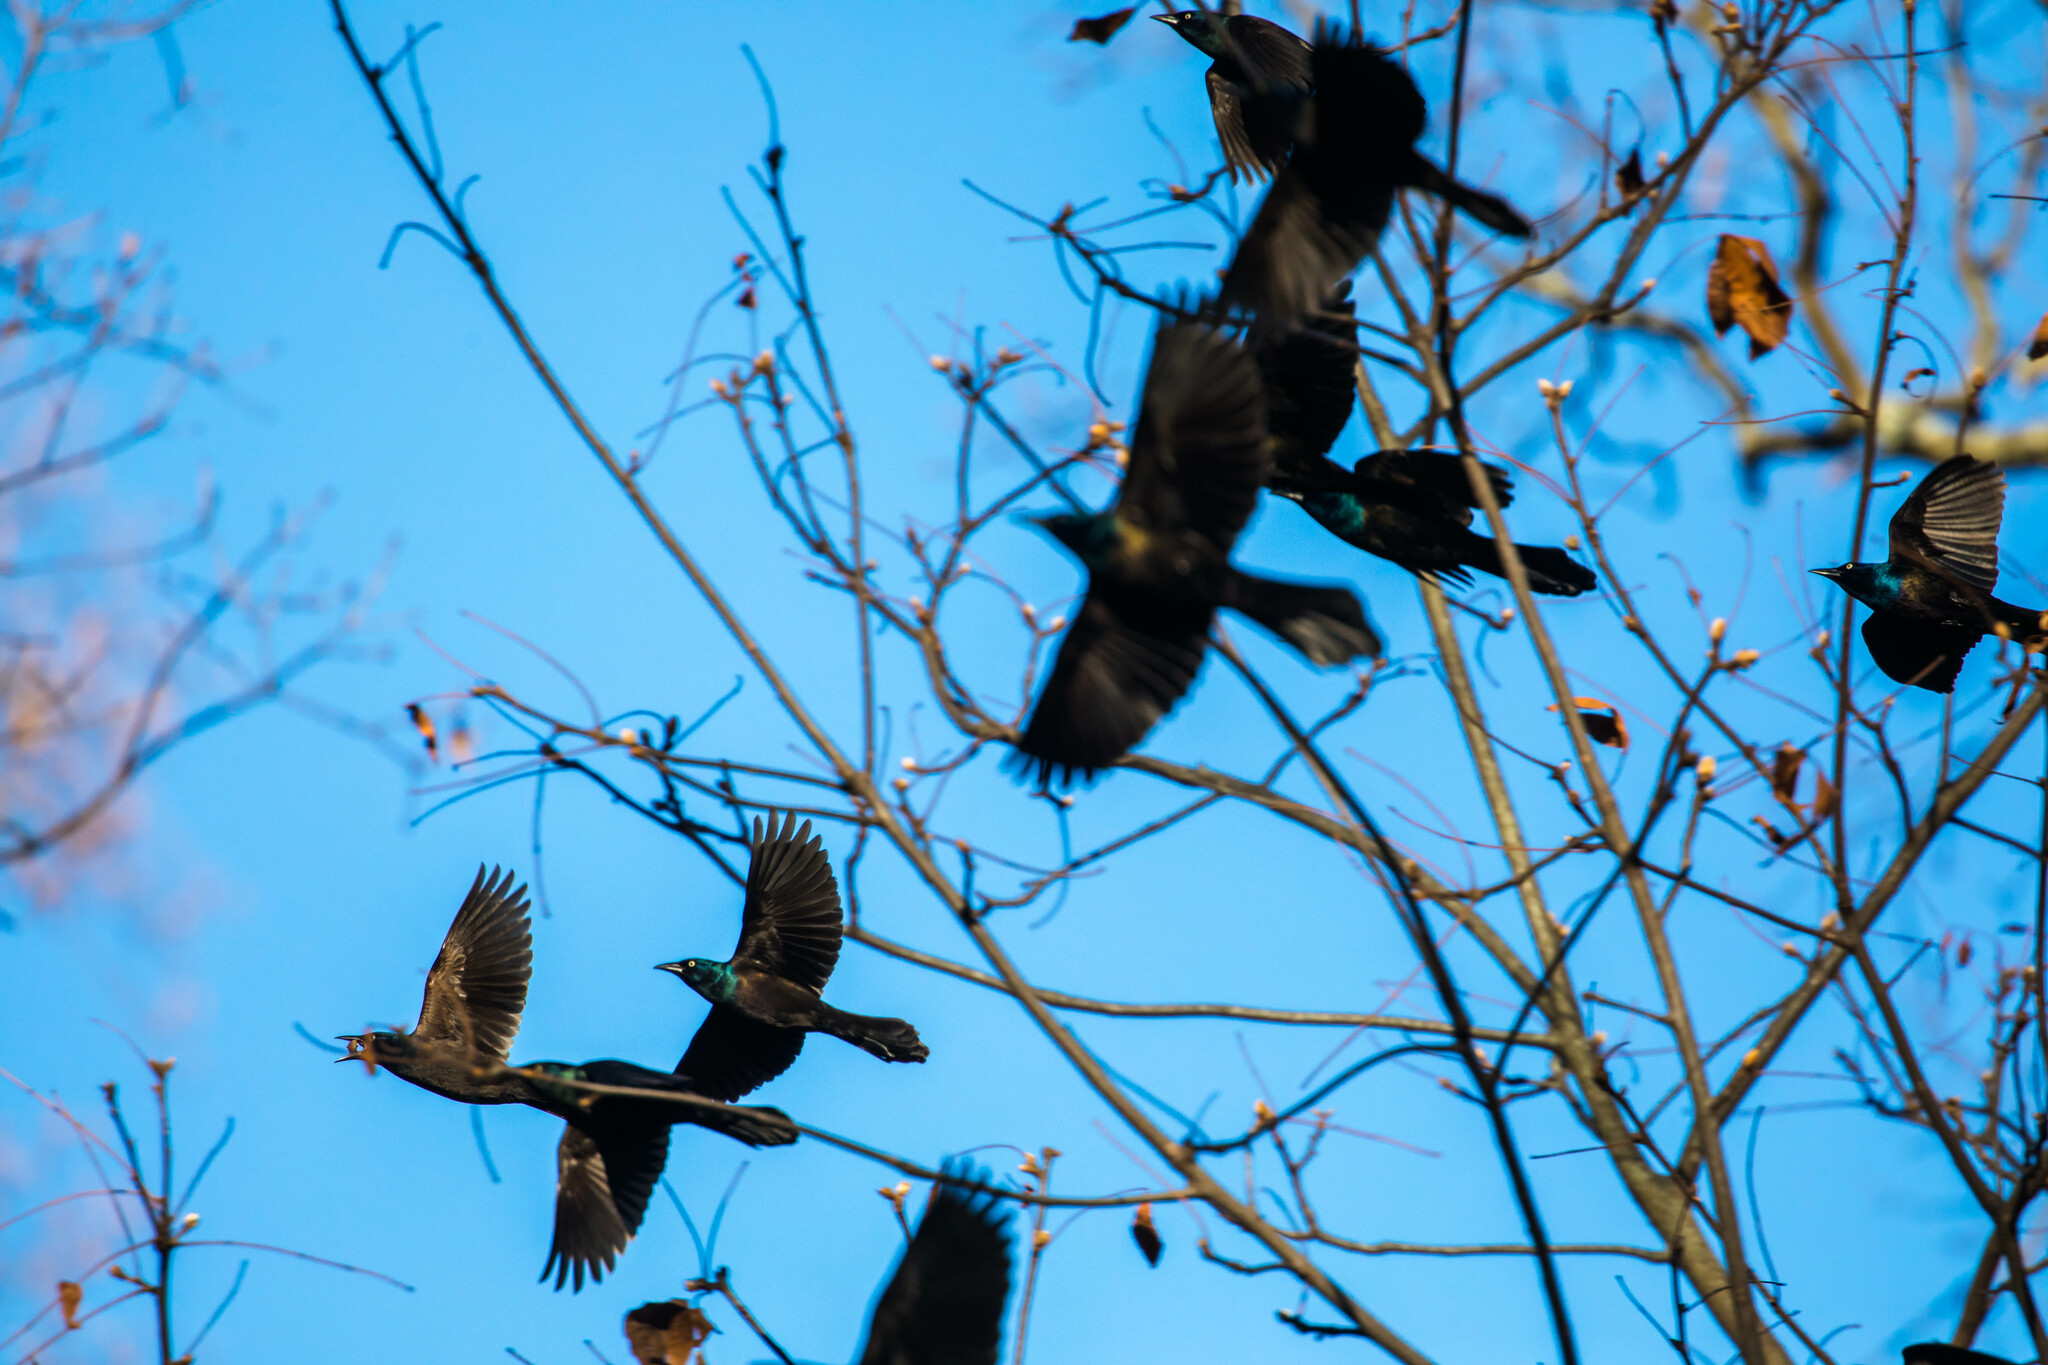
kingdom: Animalia
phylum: Chordata
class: Aves
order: Passeriformes
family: Icteridae
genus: Quiscalus
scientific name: Quiscalus quiscula
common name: Common grackle
